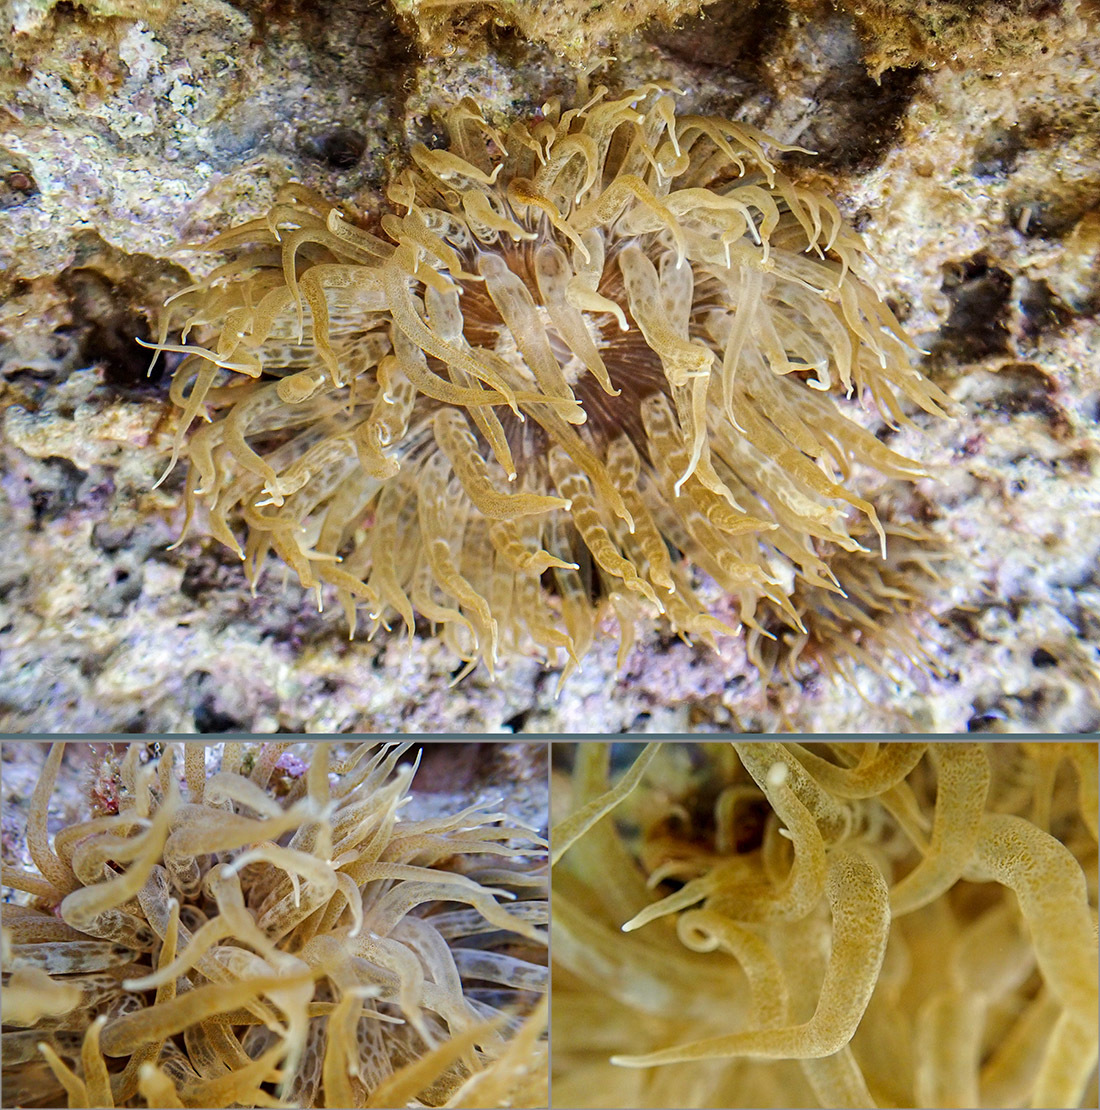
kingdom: Animalia
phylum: Cnidaria
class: Anthozoa
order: Actiniaria
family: Aiptasiidae
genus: Aiptasia
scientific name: Aiptasia mutabilis
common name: Trumpet anemone
